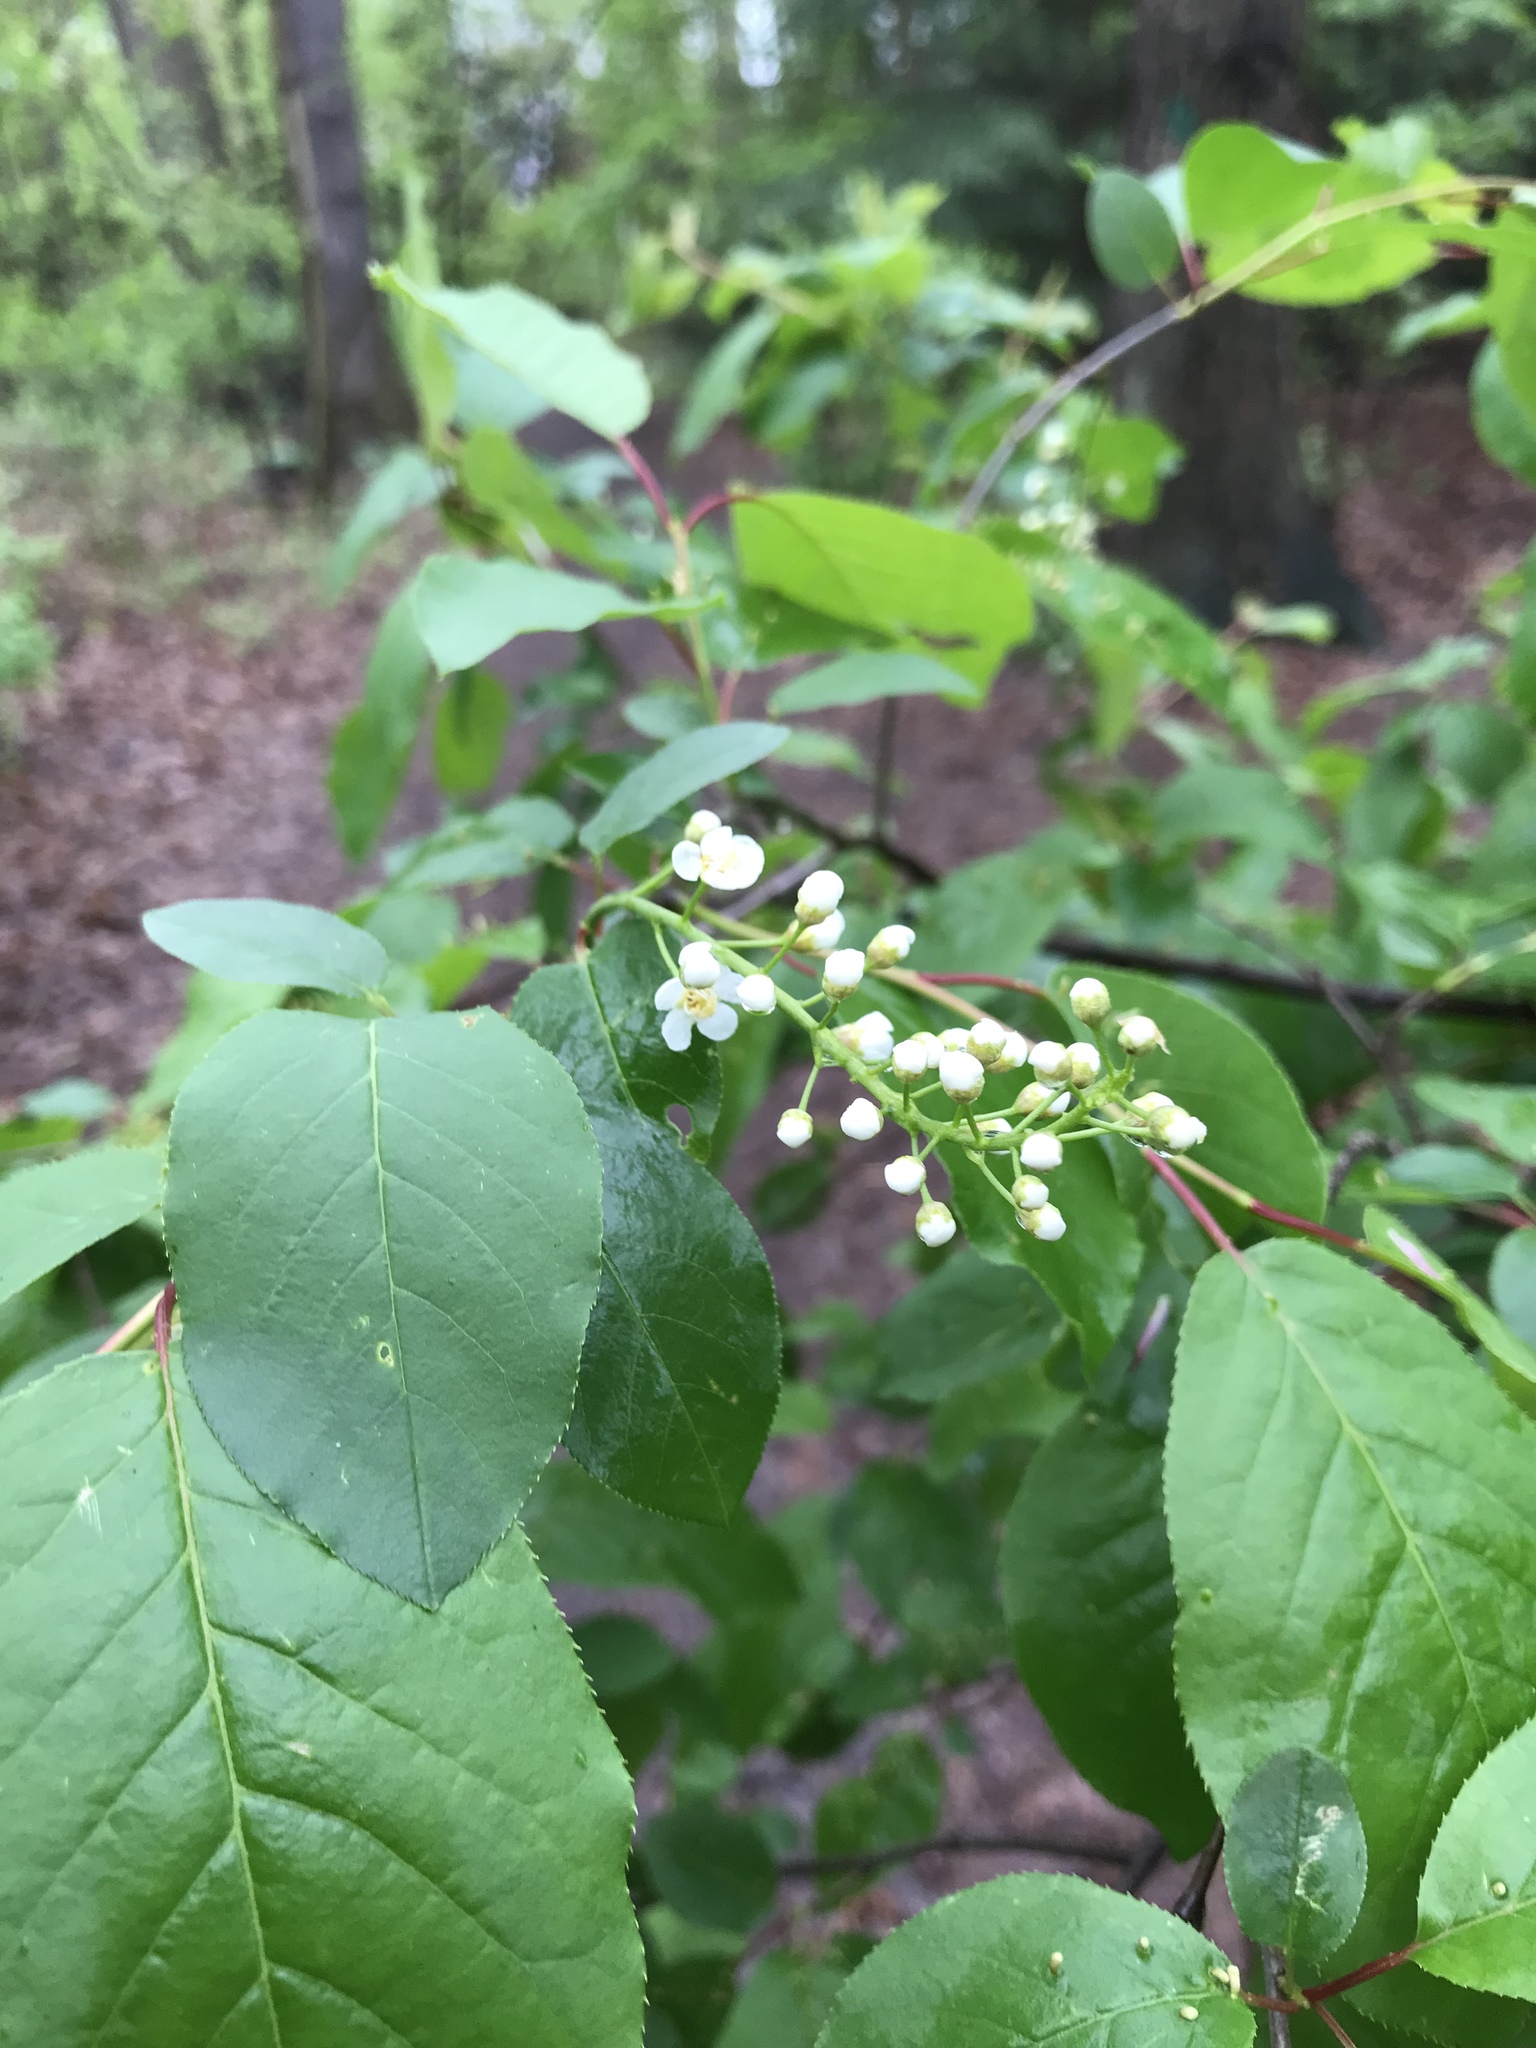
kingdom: Plantae
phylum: Tracheophyta
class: Magnoliopsida
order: Rosales
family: Rosaceae
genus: Prunus
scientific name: Prunus virginiana
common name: Chokecherry
